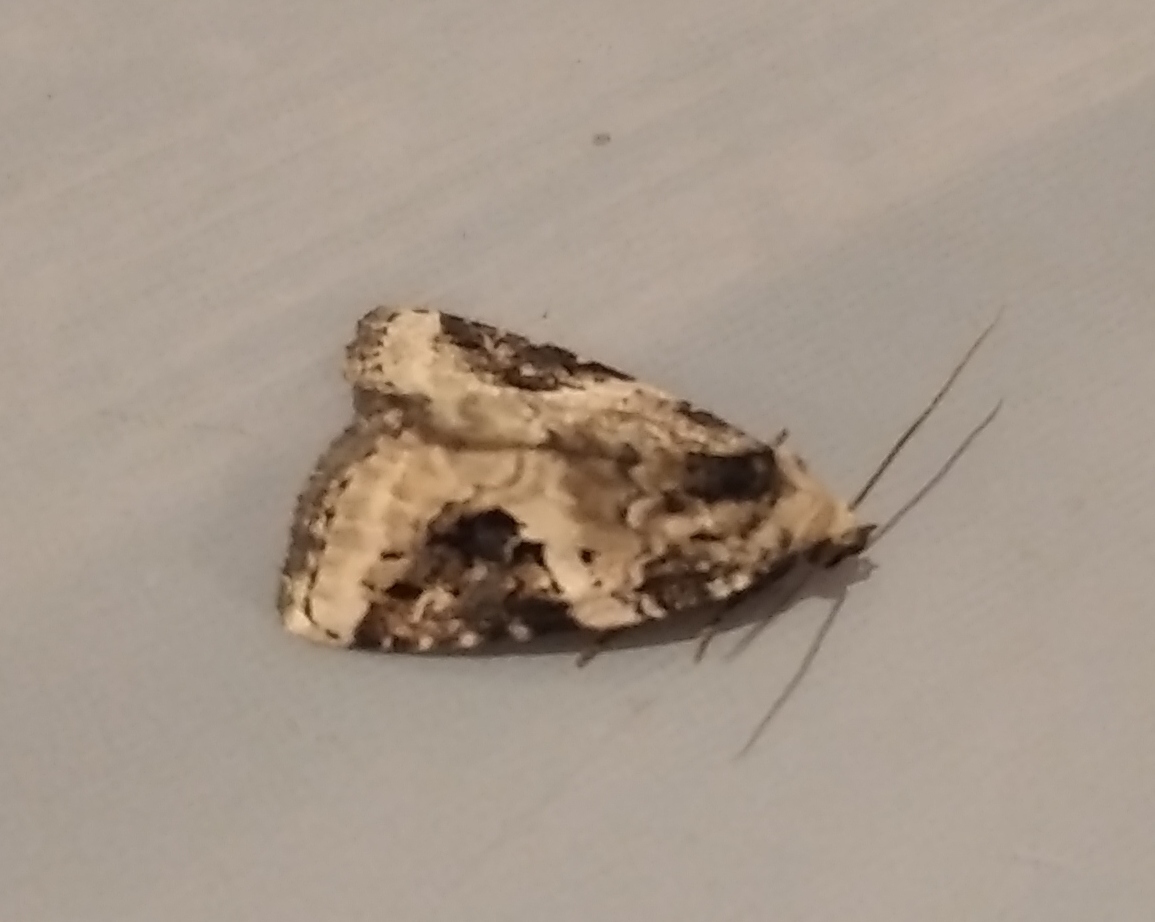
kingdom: Animalia
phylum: Arthropoda
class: Insecta
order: Lepidoptera
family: Noctuidae
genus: Pseudeustrotia
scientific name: Pseudeustrotia candidula
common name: Shining marbled
